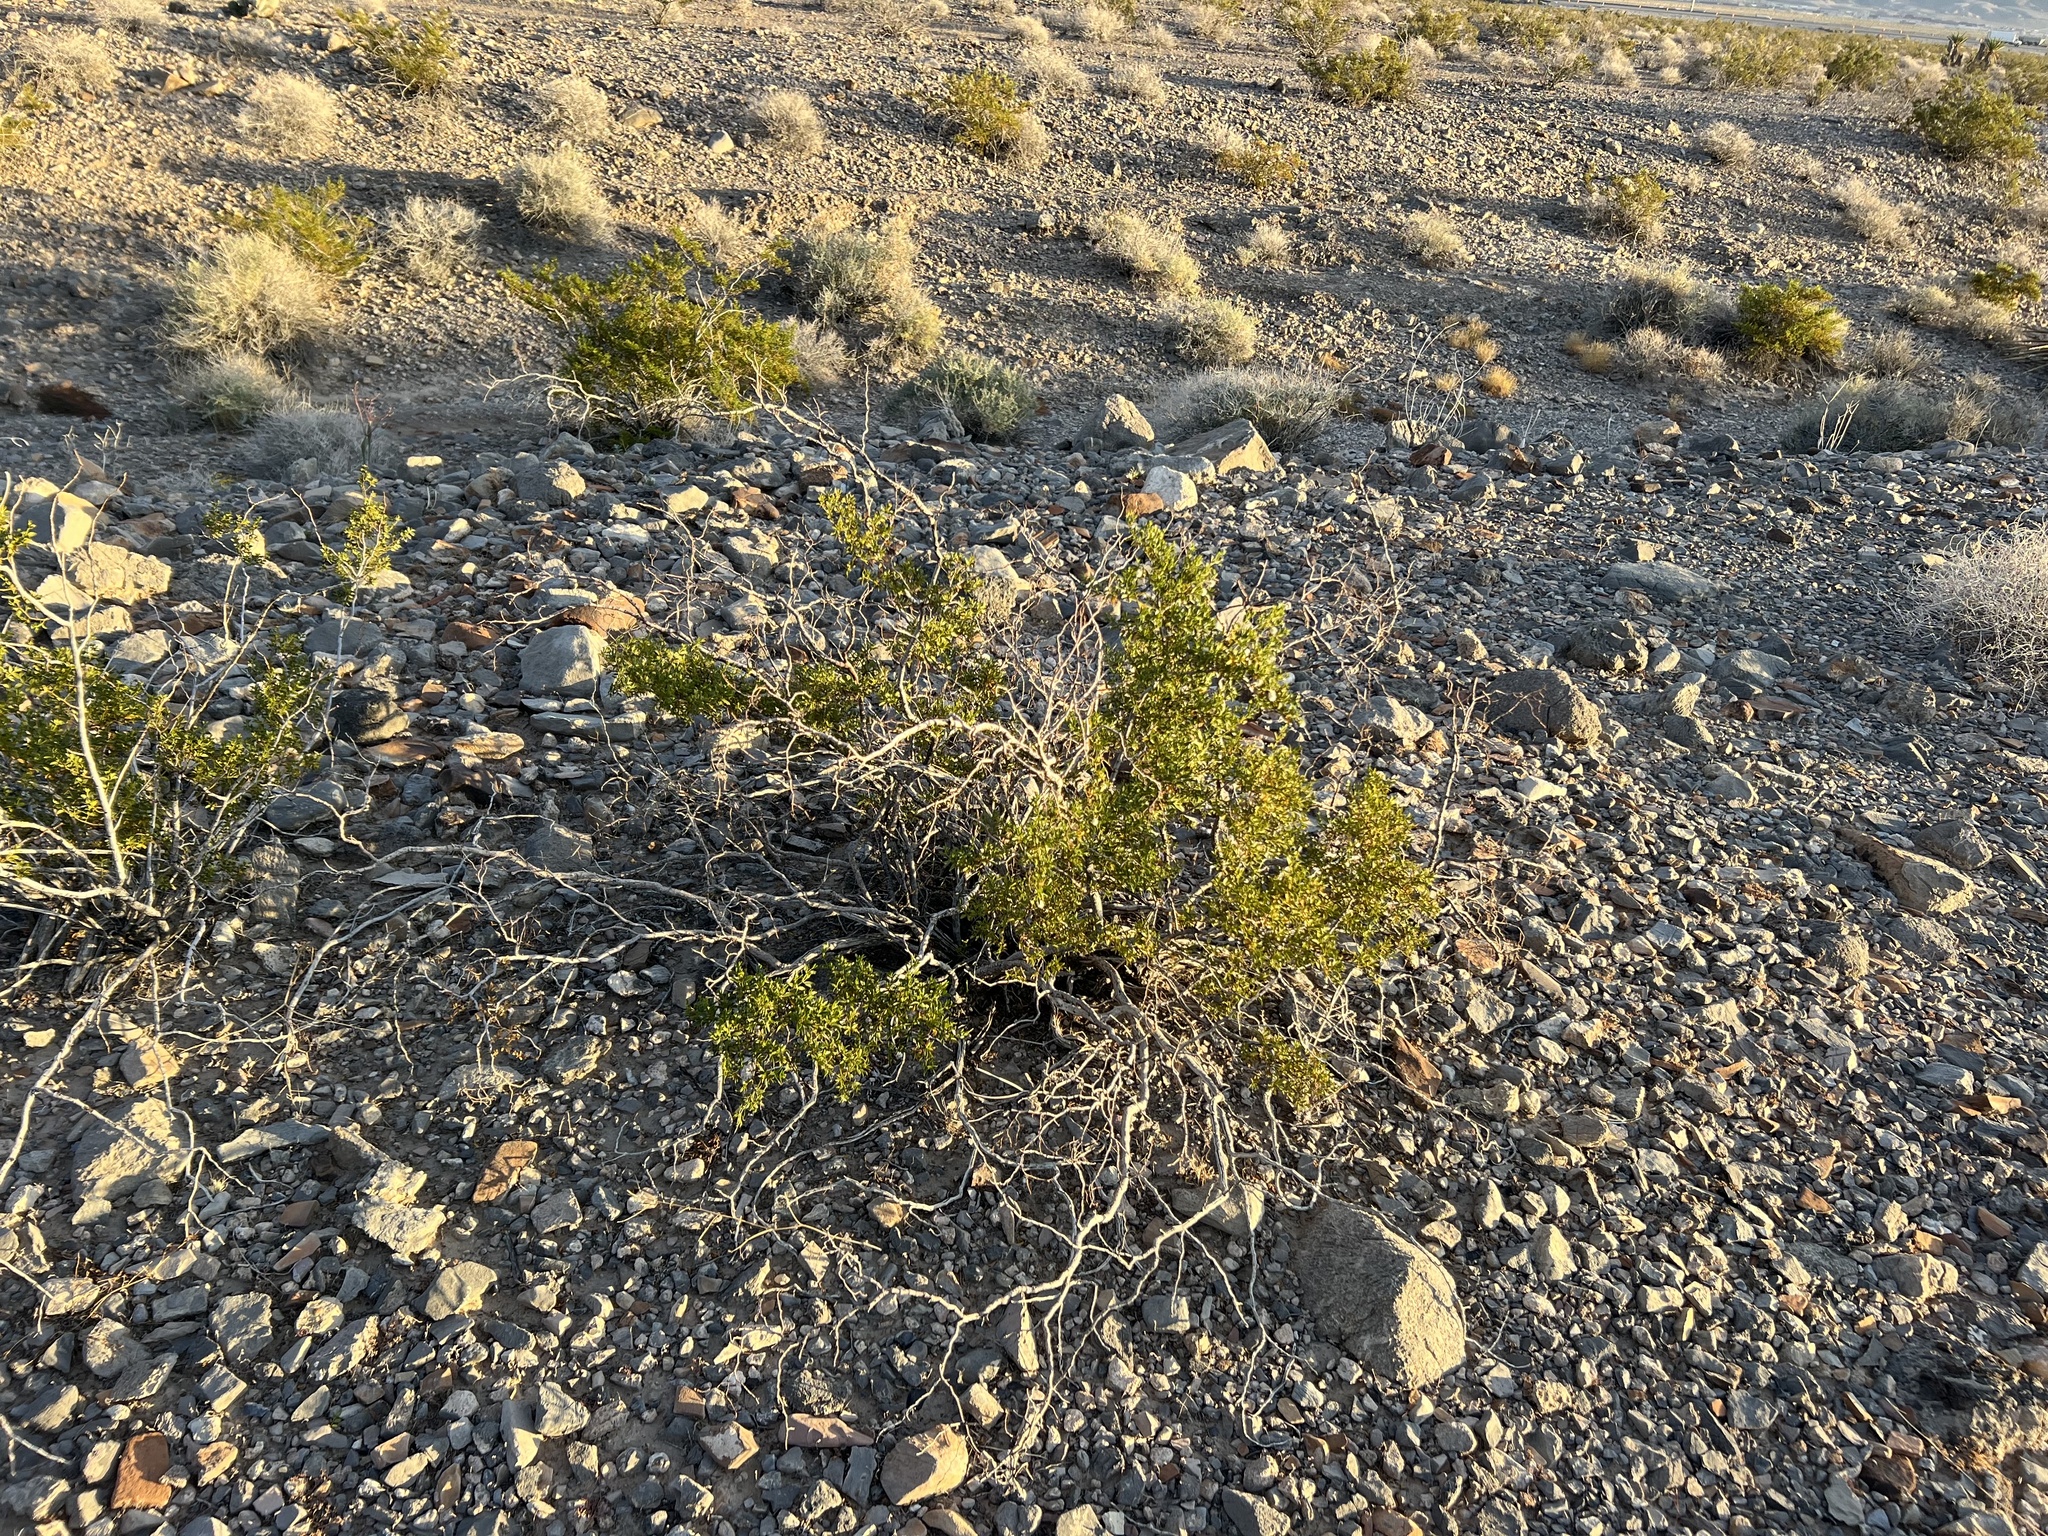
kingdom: Plantae
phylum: Tracheophyta
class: Magnoliopsida
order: Zygophyllales
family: Zygophyllaceae
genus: Larrea
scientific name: Larrea tridentata
